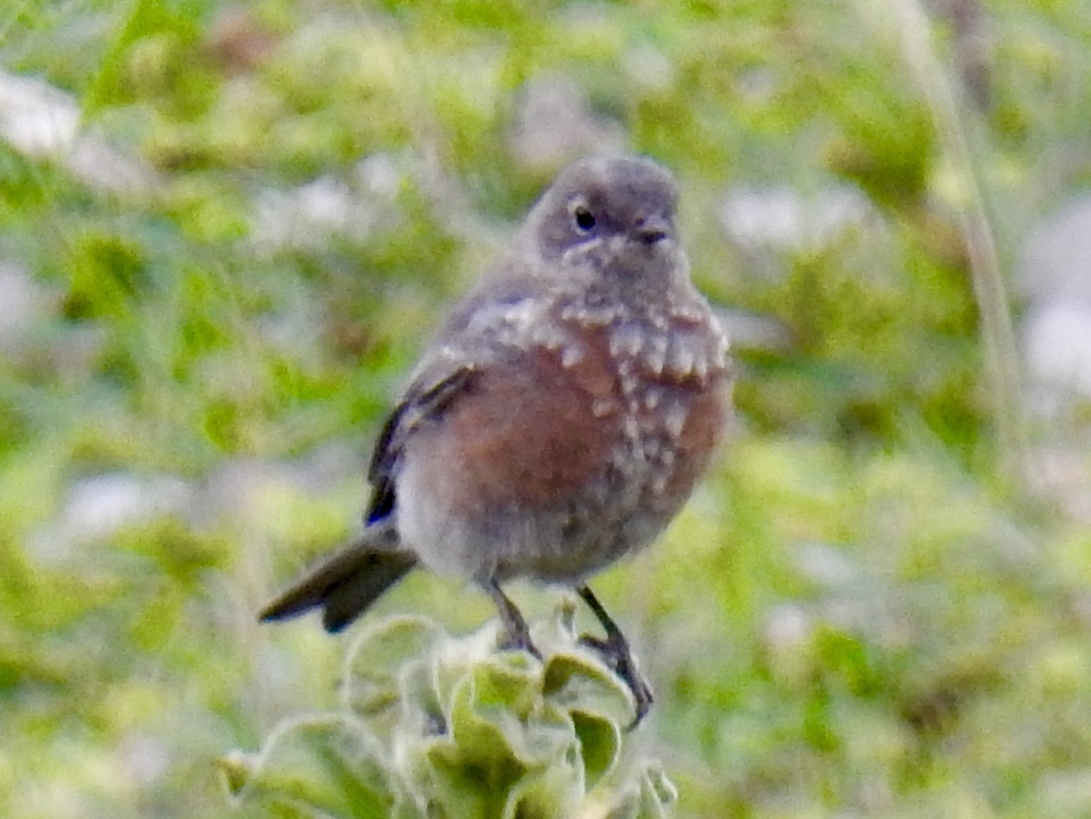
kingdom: Animalia
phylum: Chordata
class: Aves
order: Passeriformes
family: Turdidae
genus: Sialia
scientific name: Sialia mexicana
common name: Western bluebird
